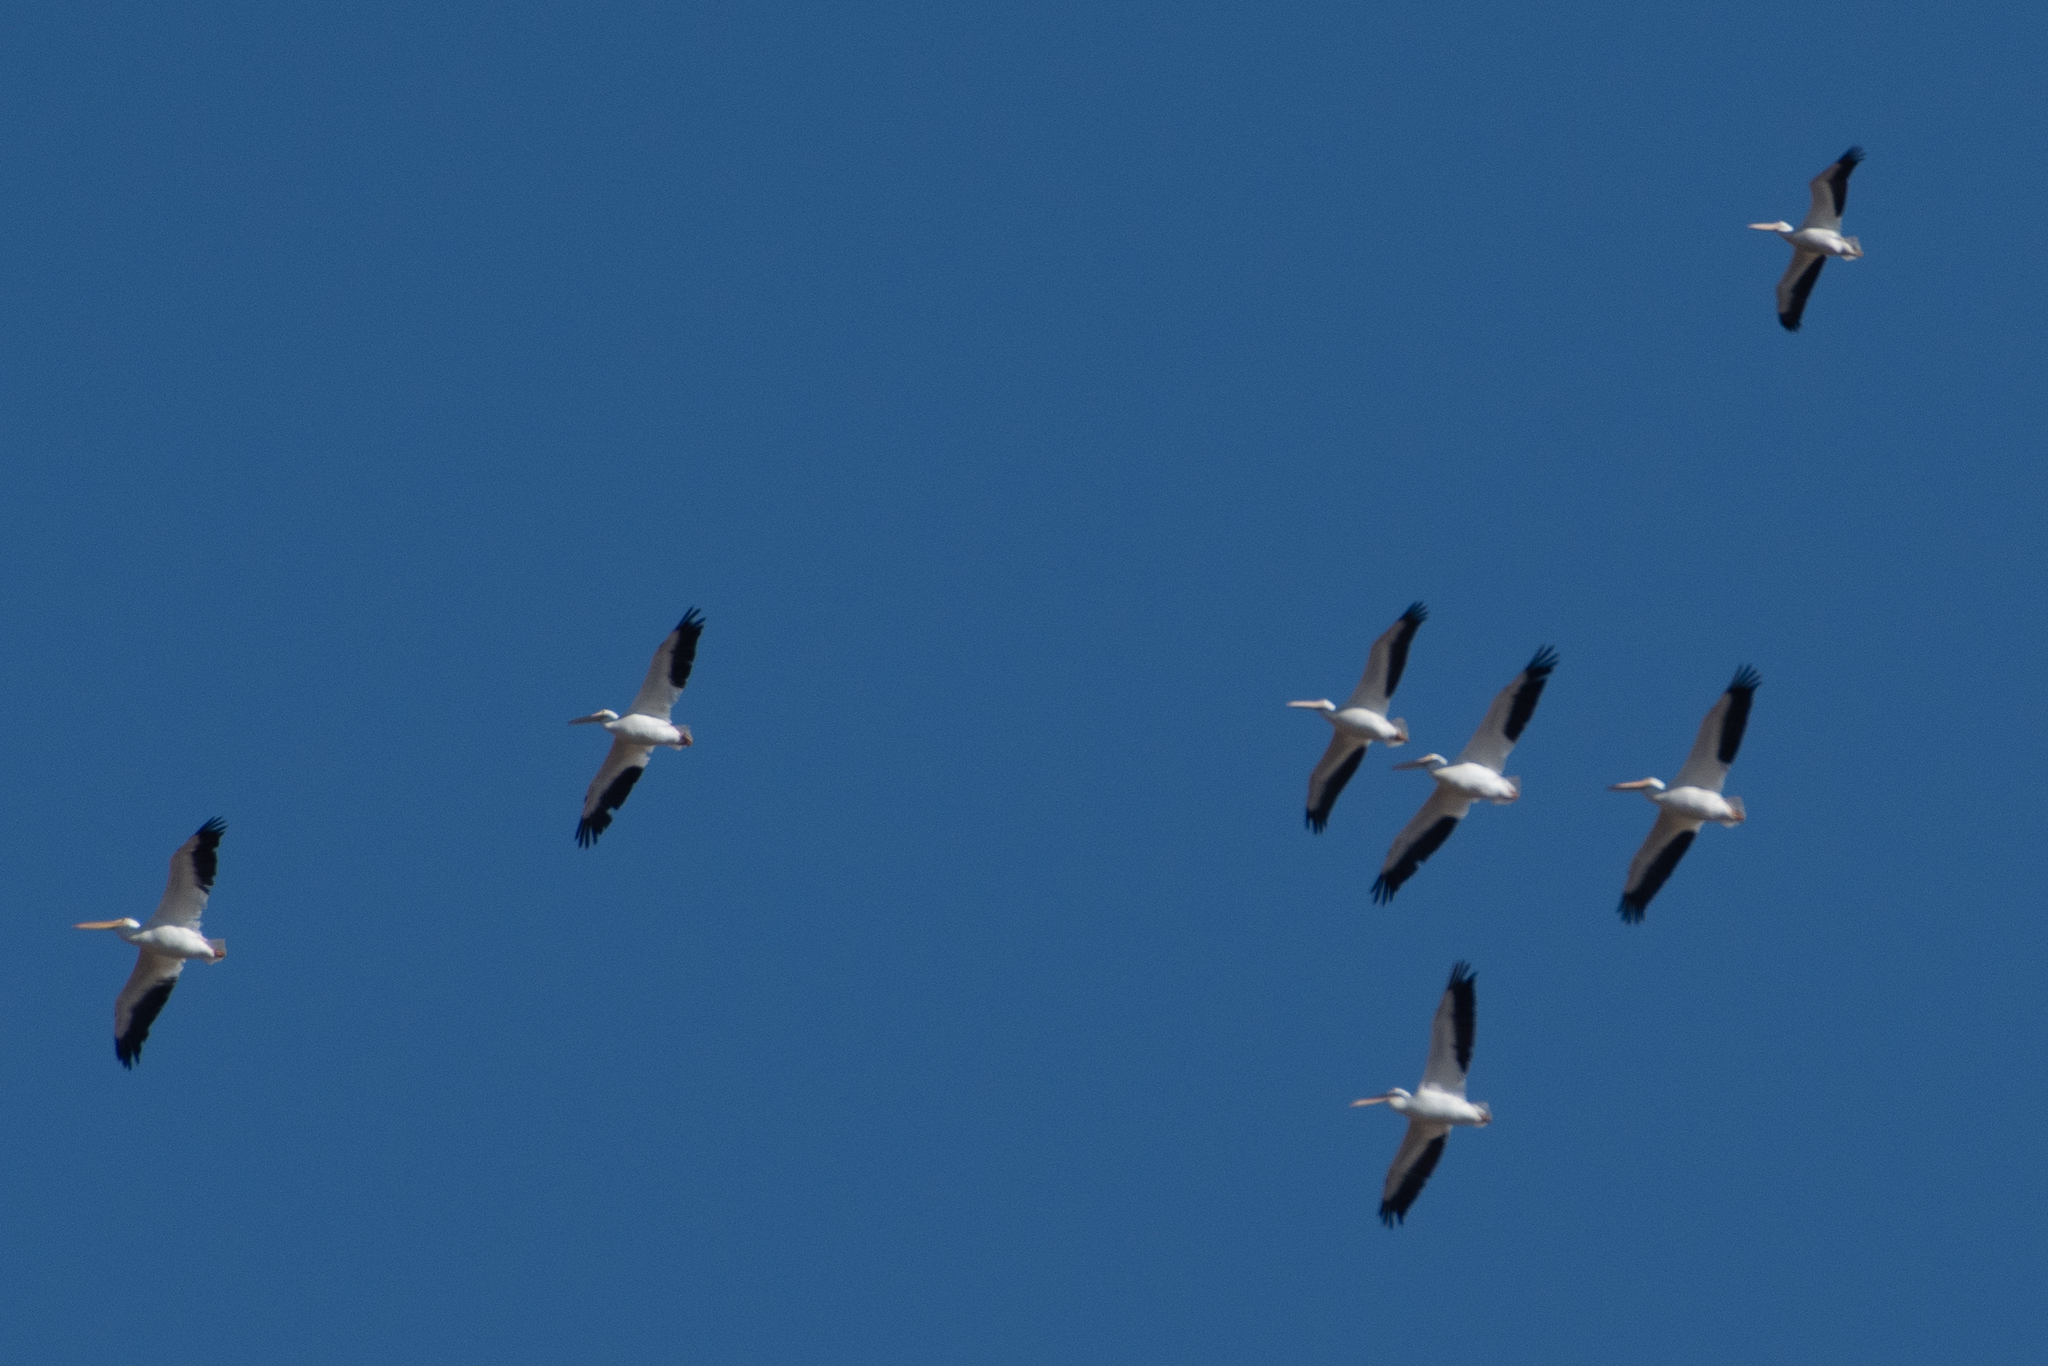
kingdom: Animalia
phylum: Chordata
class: Aves
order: Pelecaniformes
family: Pelecanidae
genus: Pelecanus
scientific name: Pelecanus erythrorhynchos
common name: American white pelican
